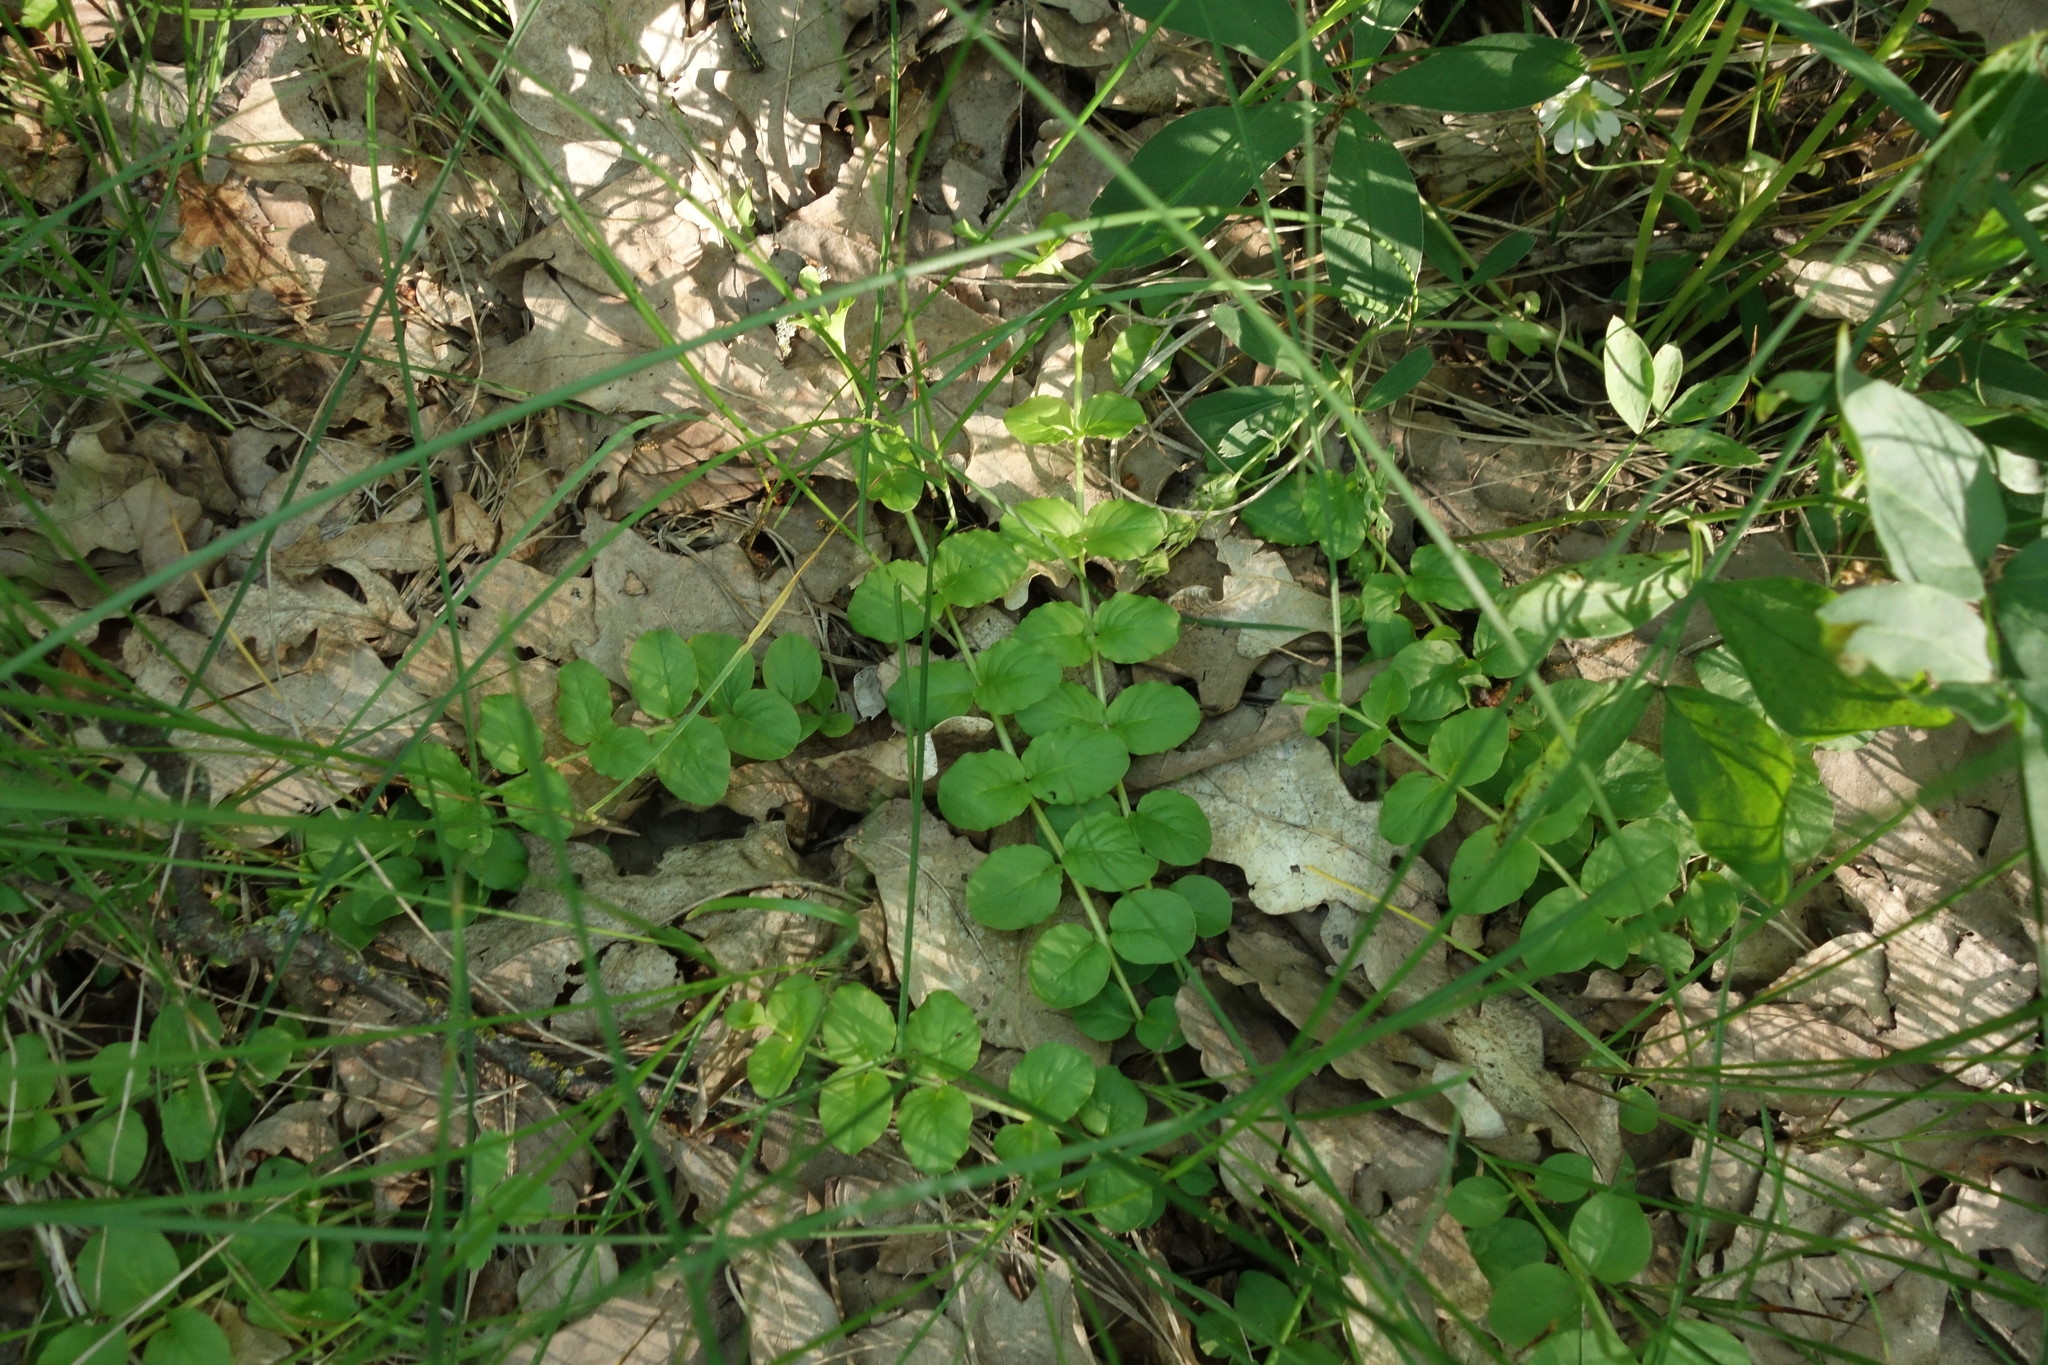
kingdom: Plantae
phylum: Tracheophyta
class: Magnoliopsida
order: Ericales
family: Primulaceae
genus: Lysimachia
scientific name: Lysimachia nummularia
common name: Moneywort
